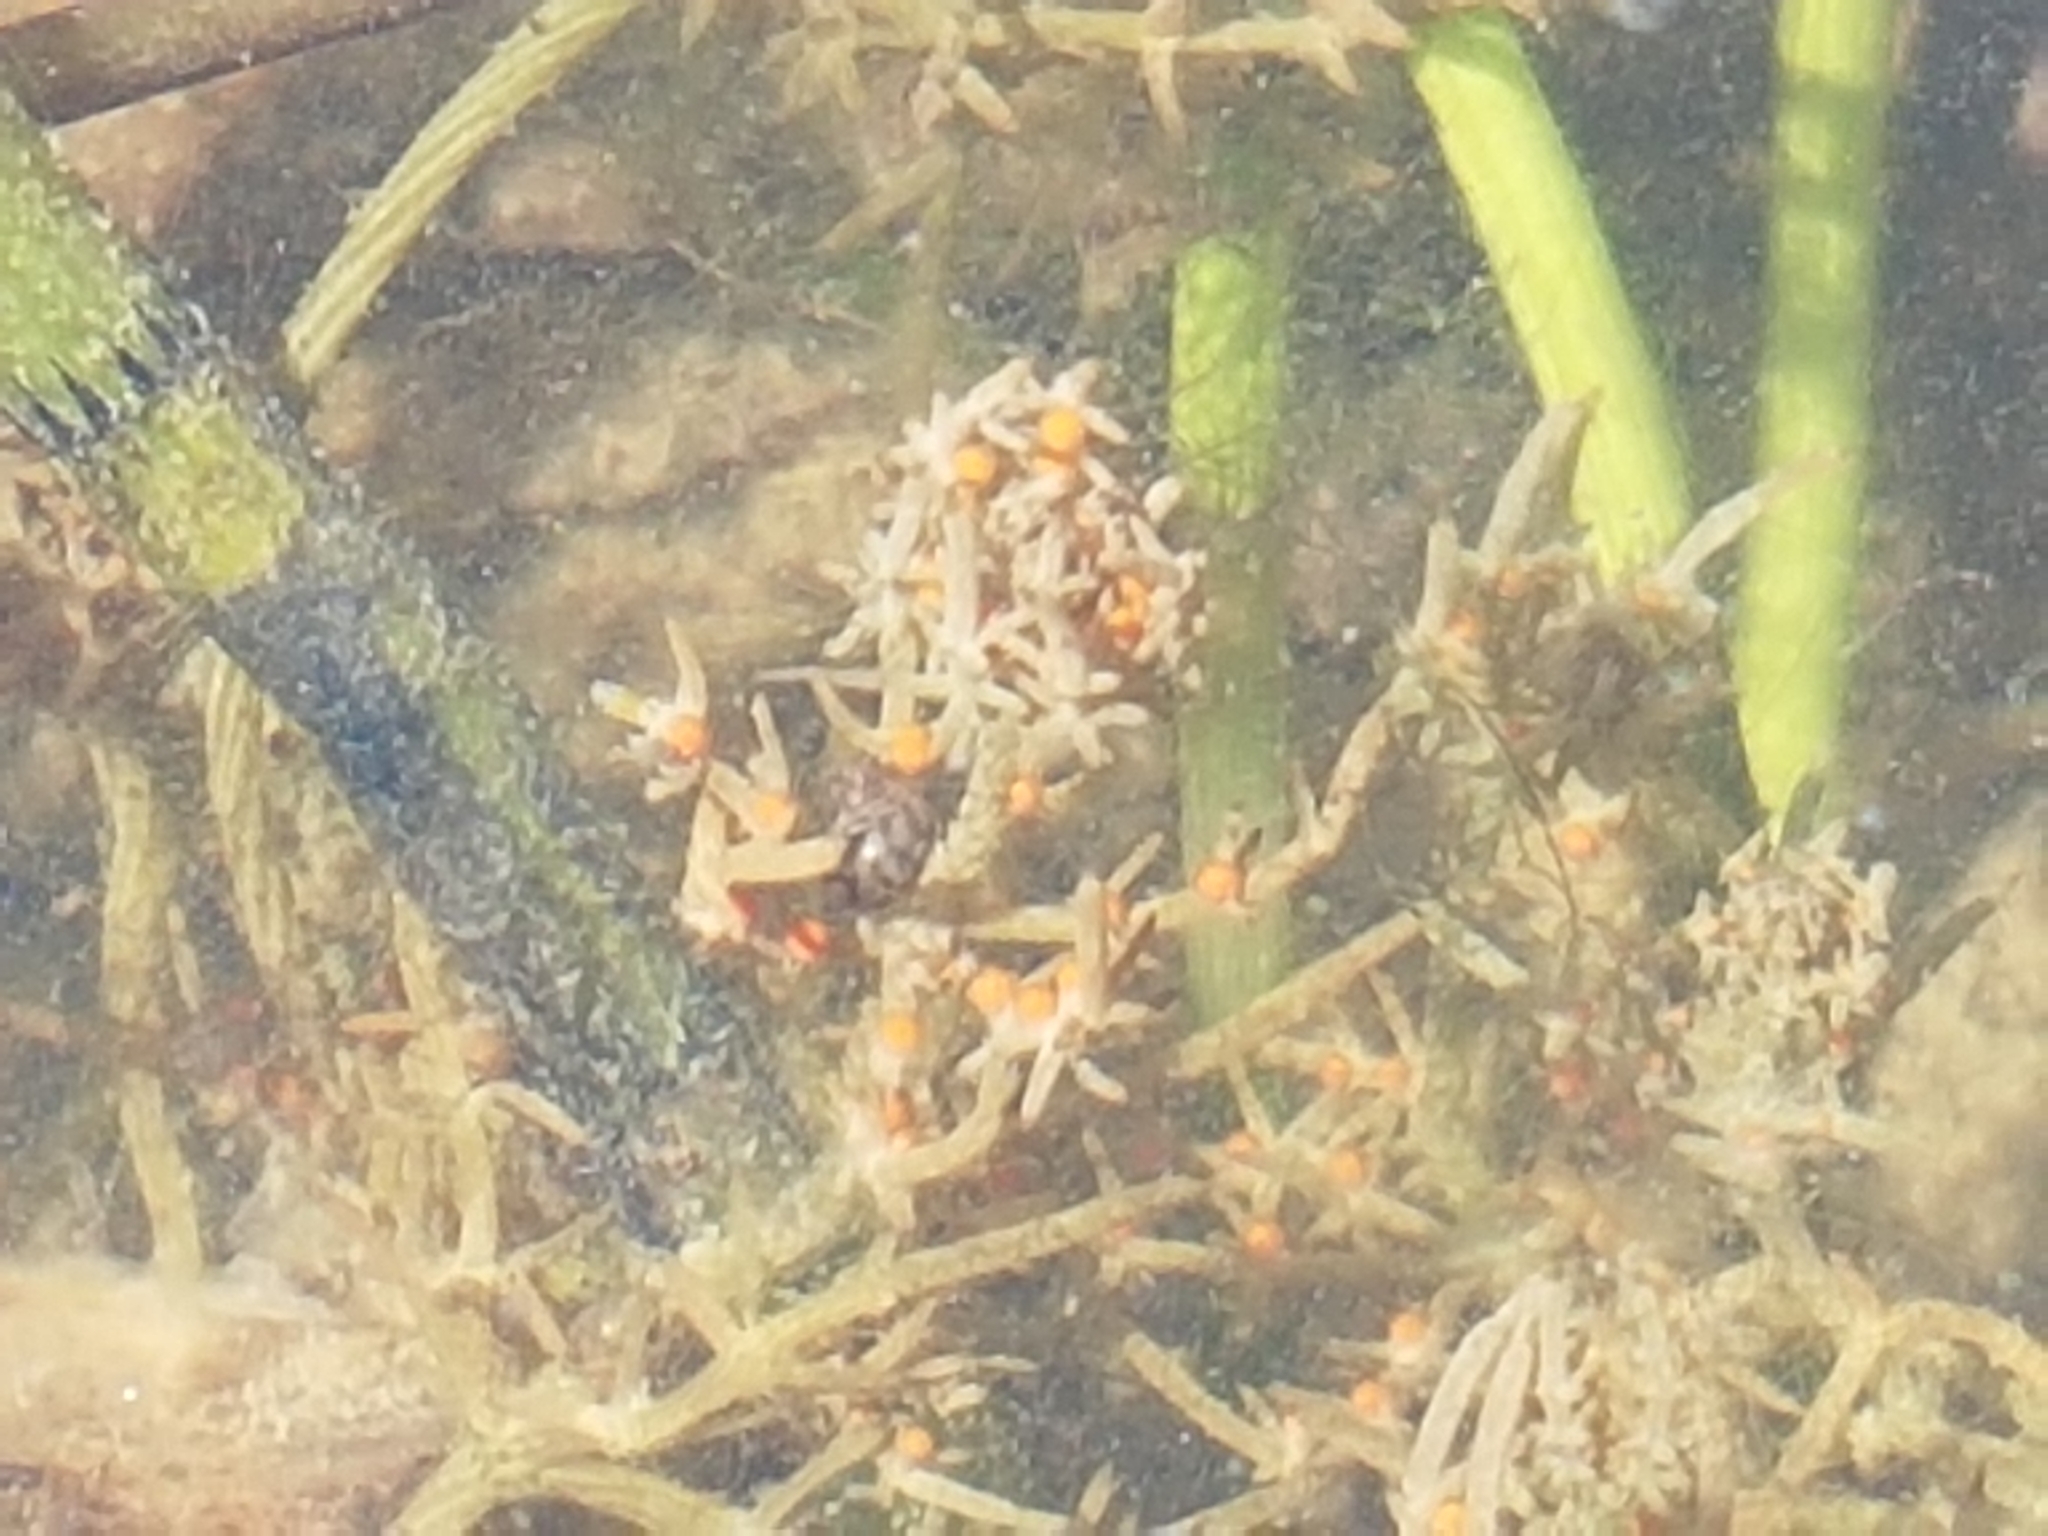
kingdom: Plantae
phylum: Charophyta
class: Charophyceae
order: Charales
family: Characeae
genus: Chara
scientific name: Chara tomentosa
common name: Coral stonewort
